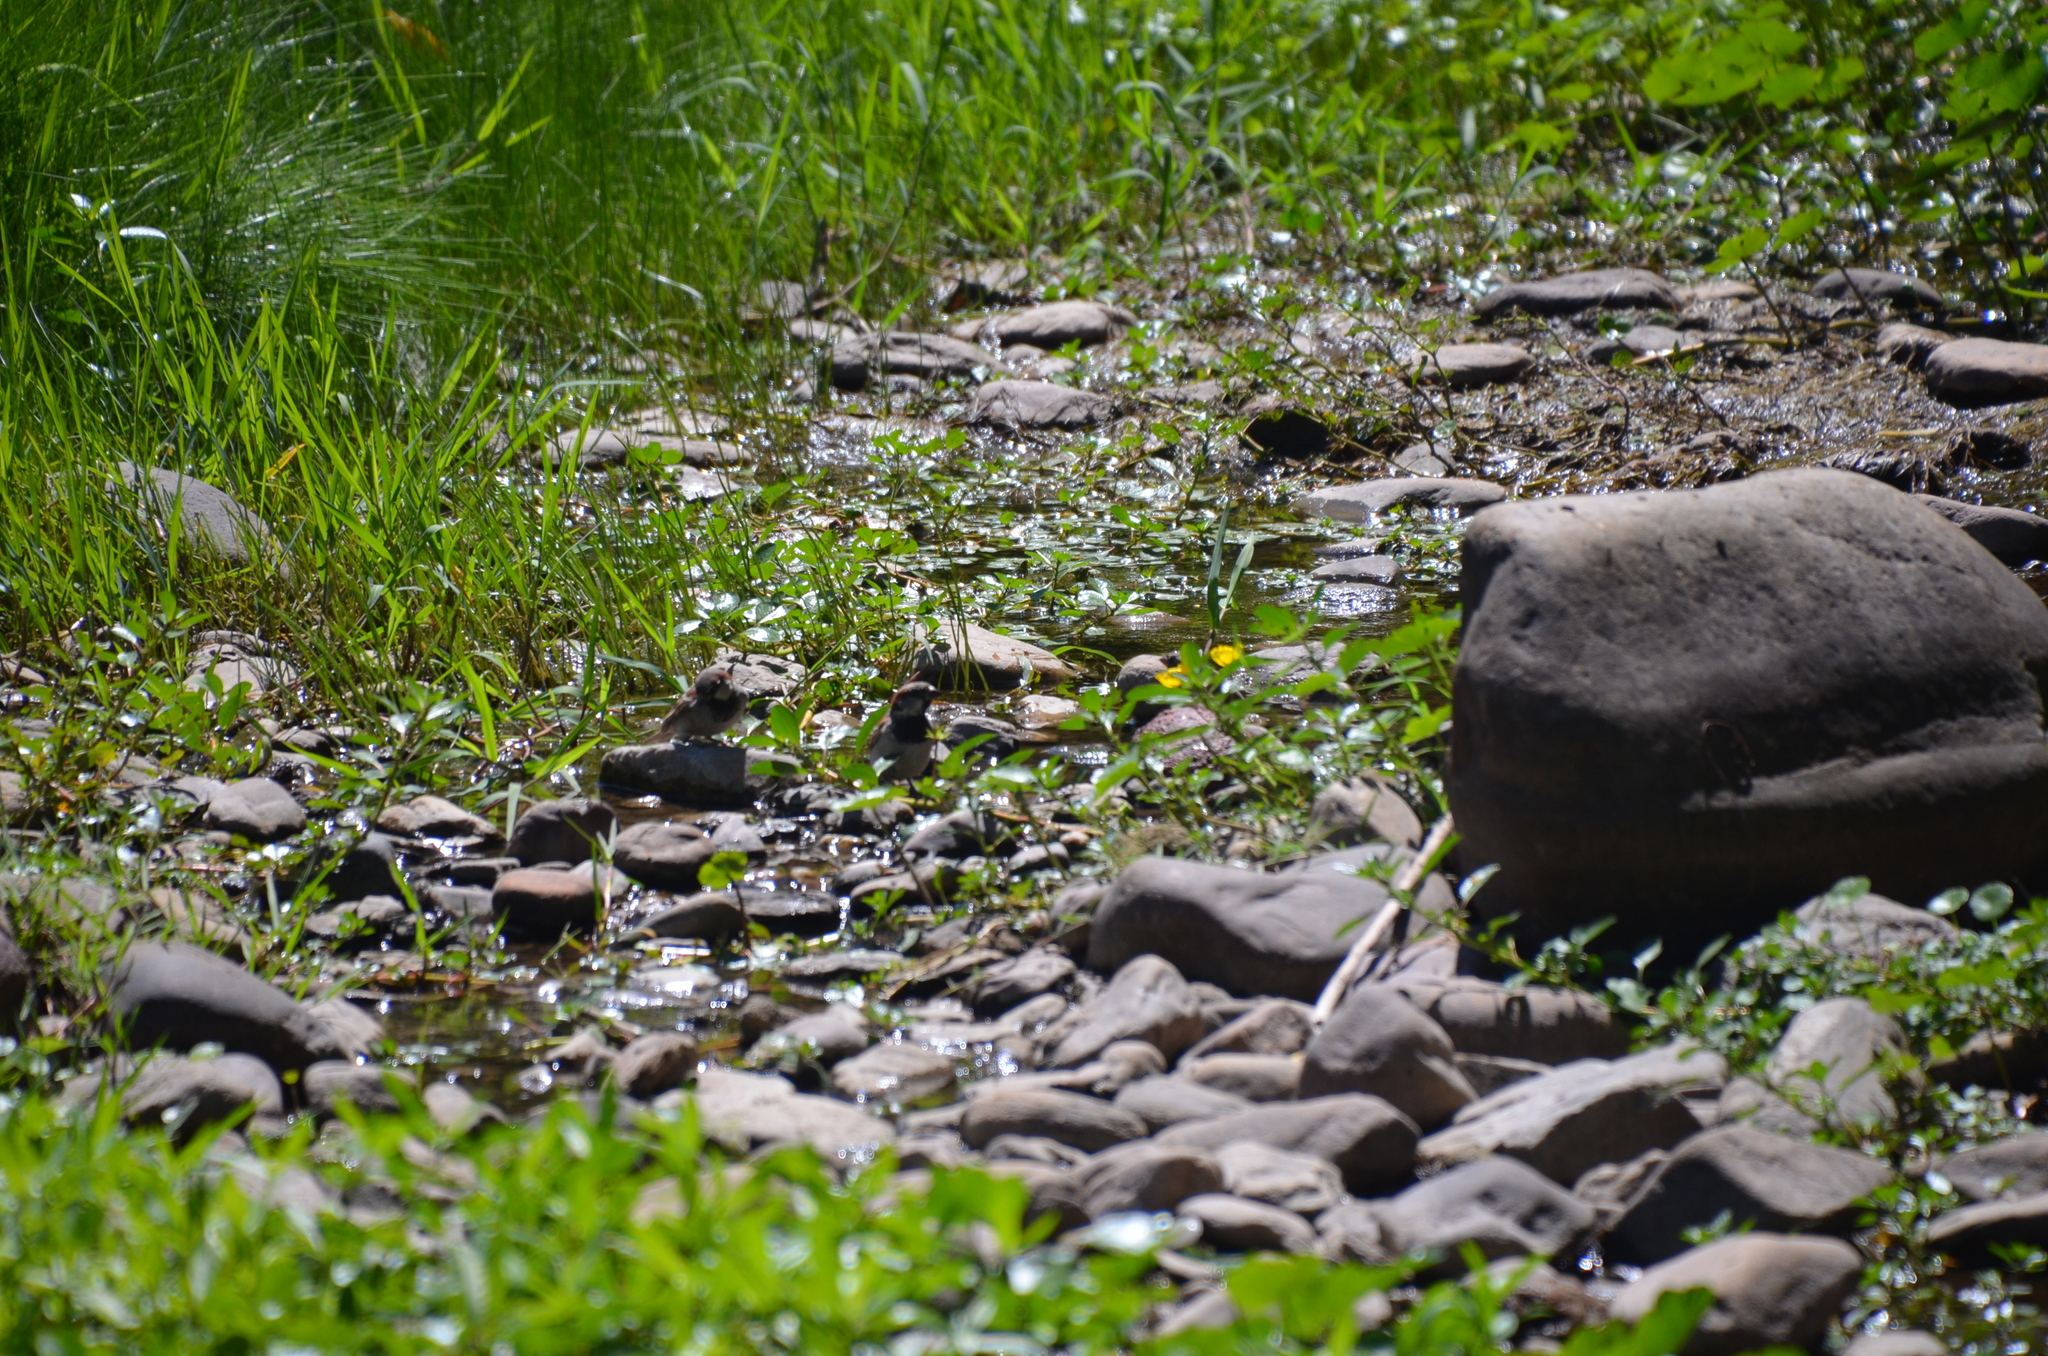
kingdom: Animalia
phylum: Chordata
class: Aves
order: Passeriformes
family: Passeridae
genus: Passer
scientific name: Passer domesticus
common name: House sparrow
